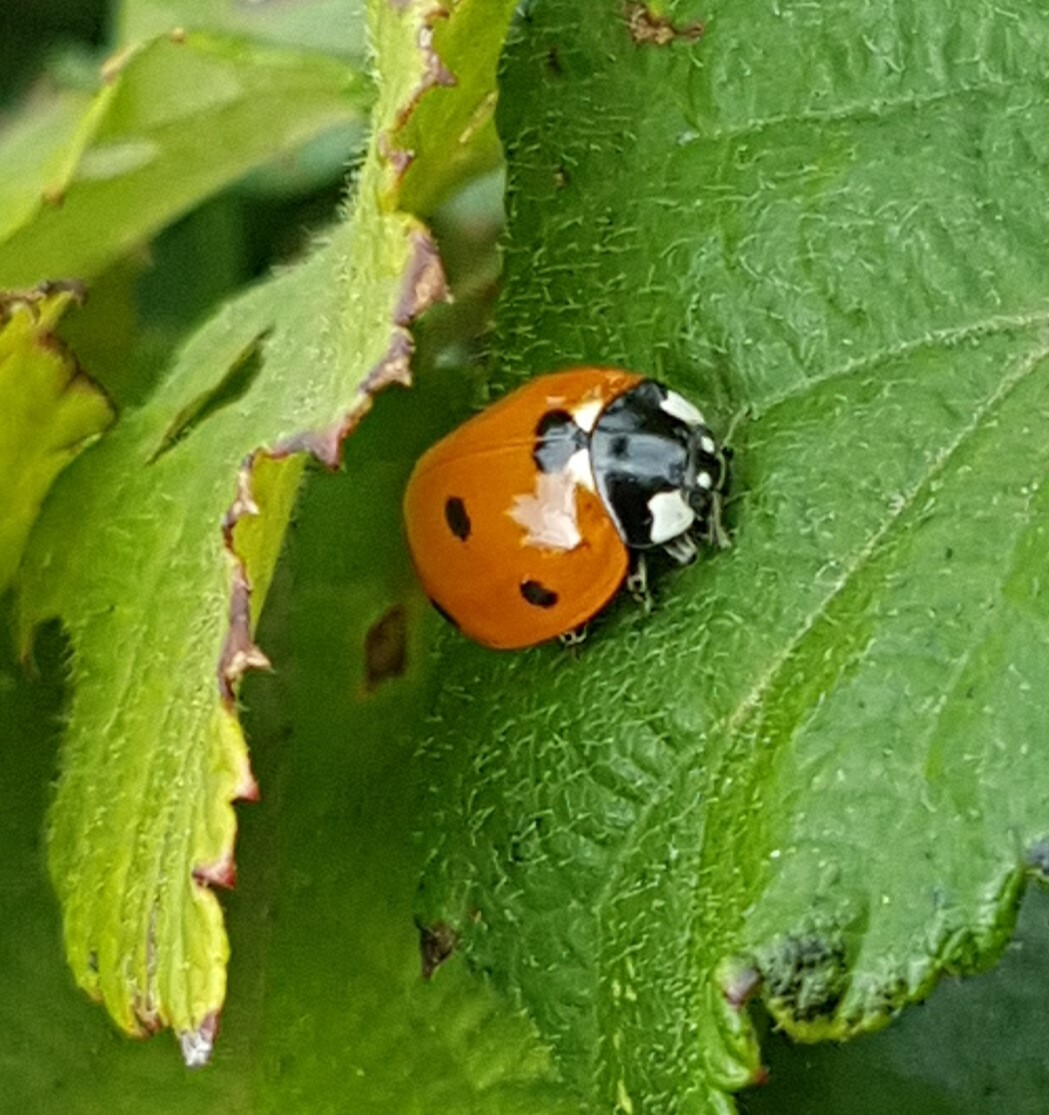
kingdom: Animalia
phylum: Arthropoda
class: Insecta
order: Coleoptera
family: Coccinellidae
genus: Coccinella
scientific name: Coccinella septempunctata
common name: Sevenspotted lady beetle
